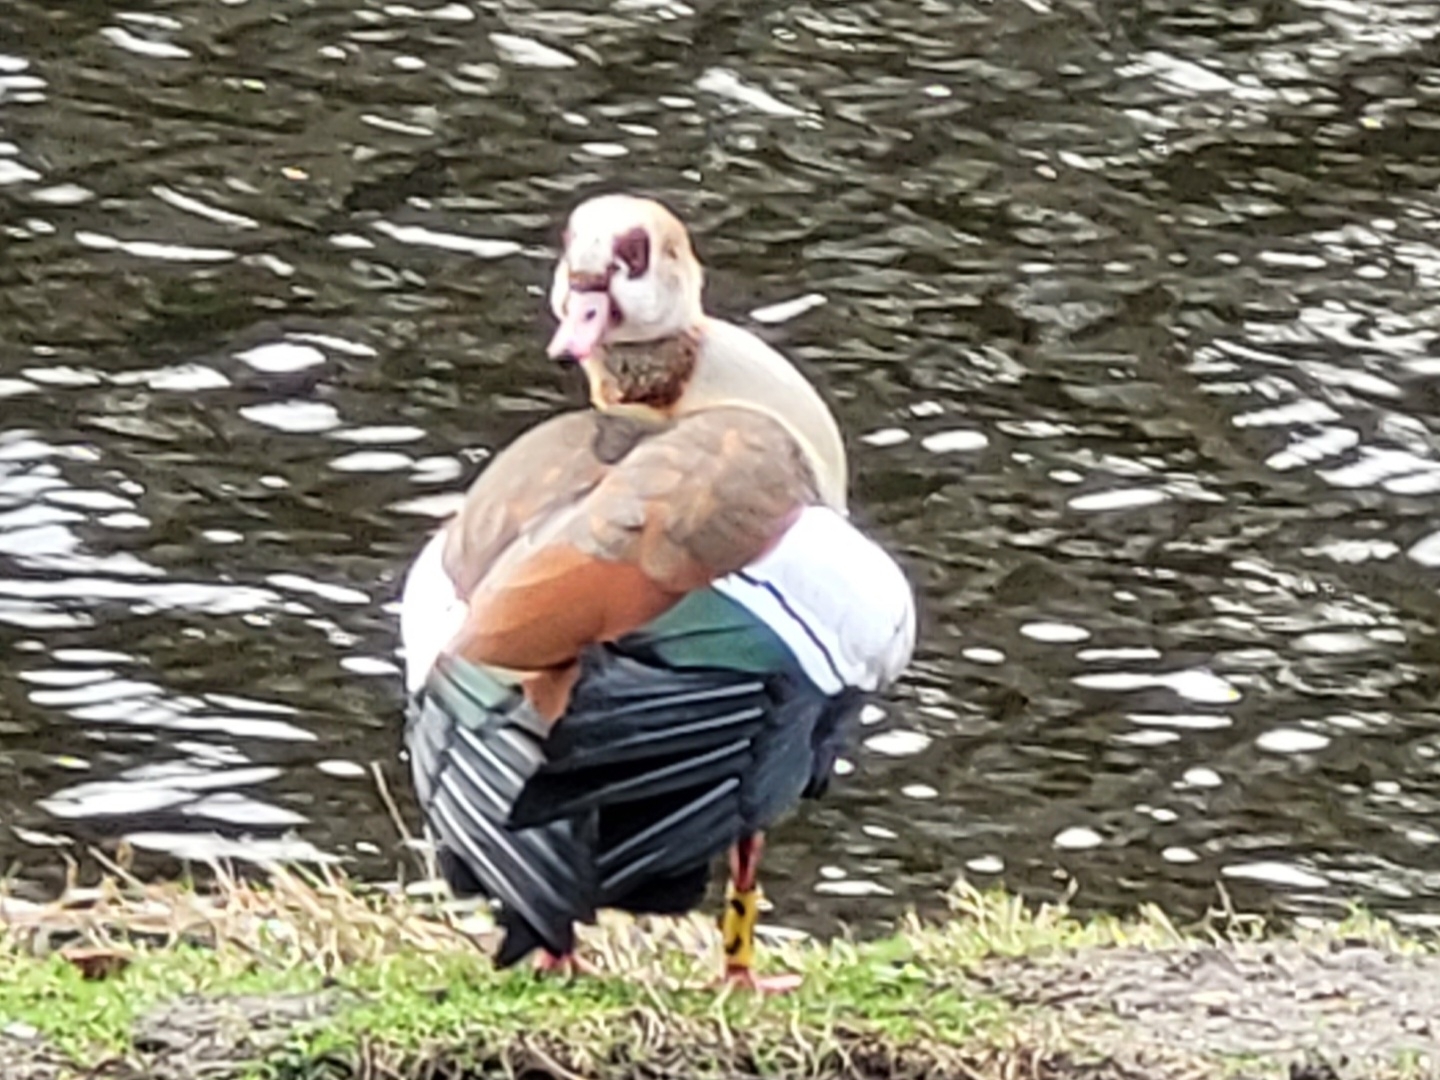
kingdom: Animalia
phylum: Chordata
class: Aves
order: Anseriformes
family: Anatidae
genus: Alopochen
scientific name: Alopochen aegyptiaca
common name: Egyptian goose
